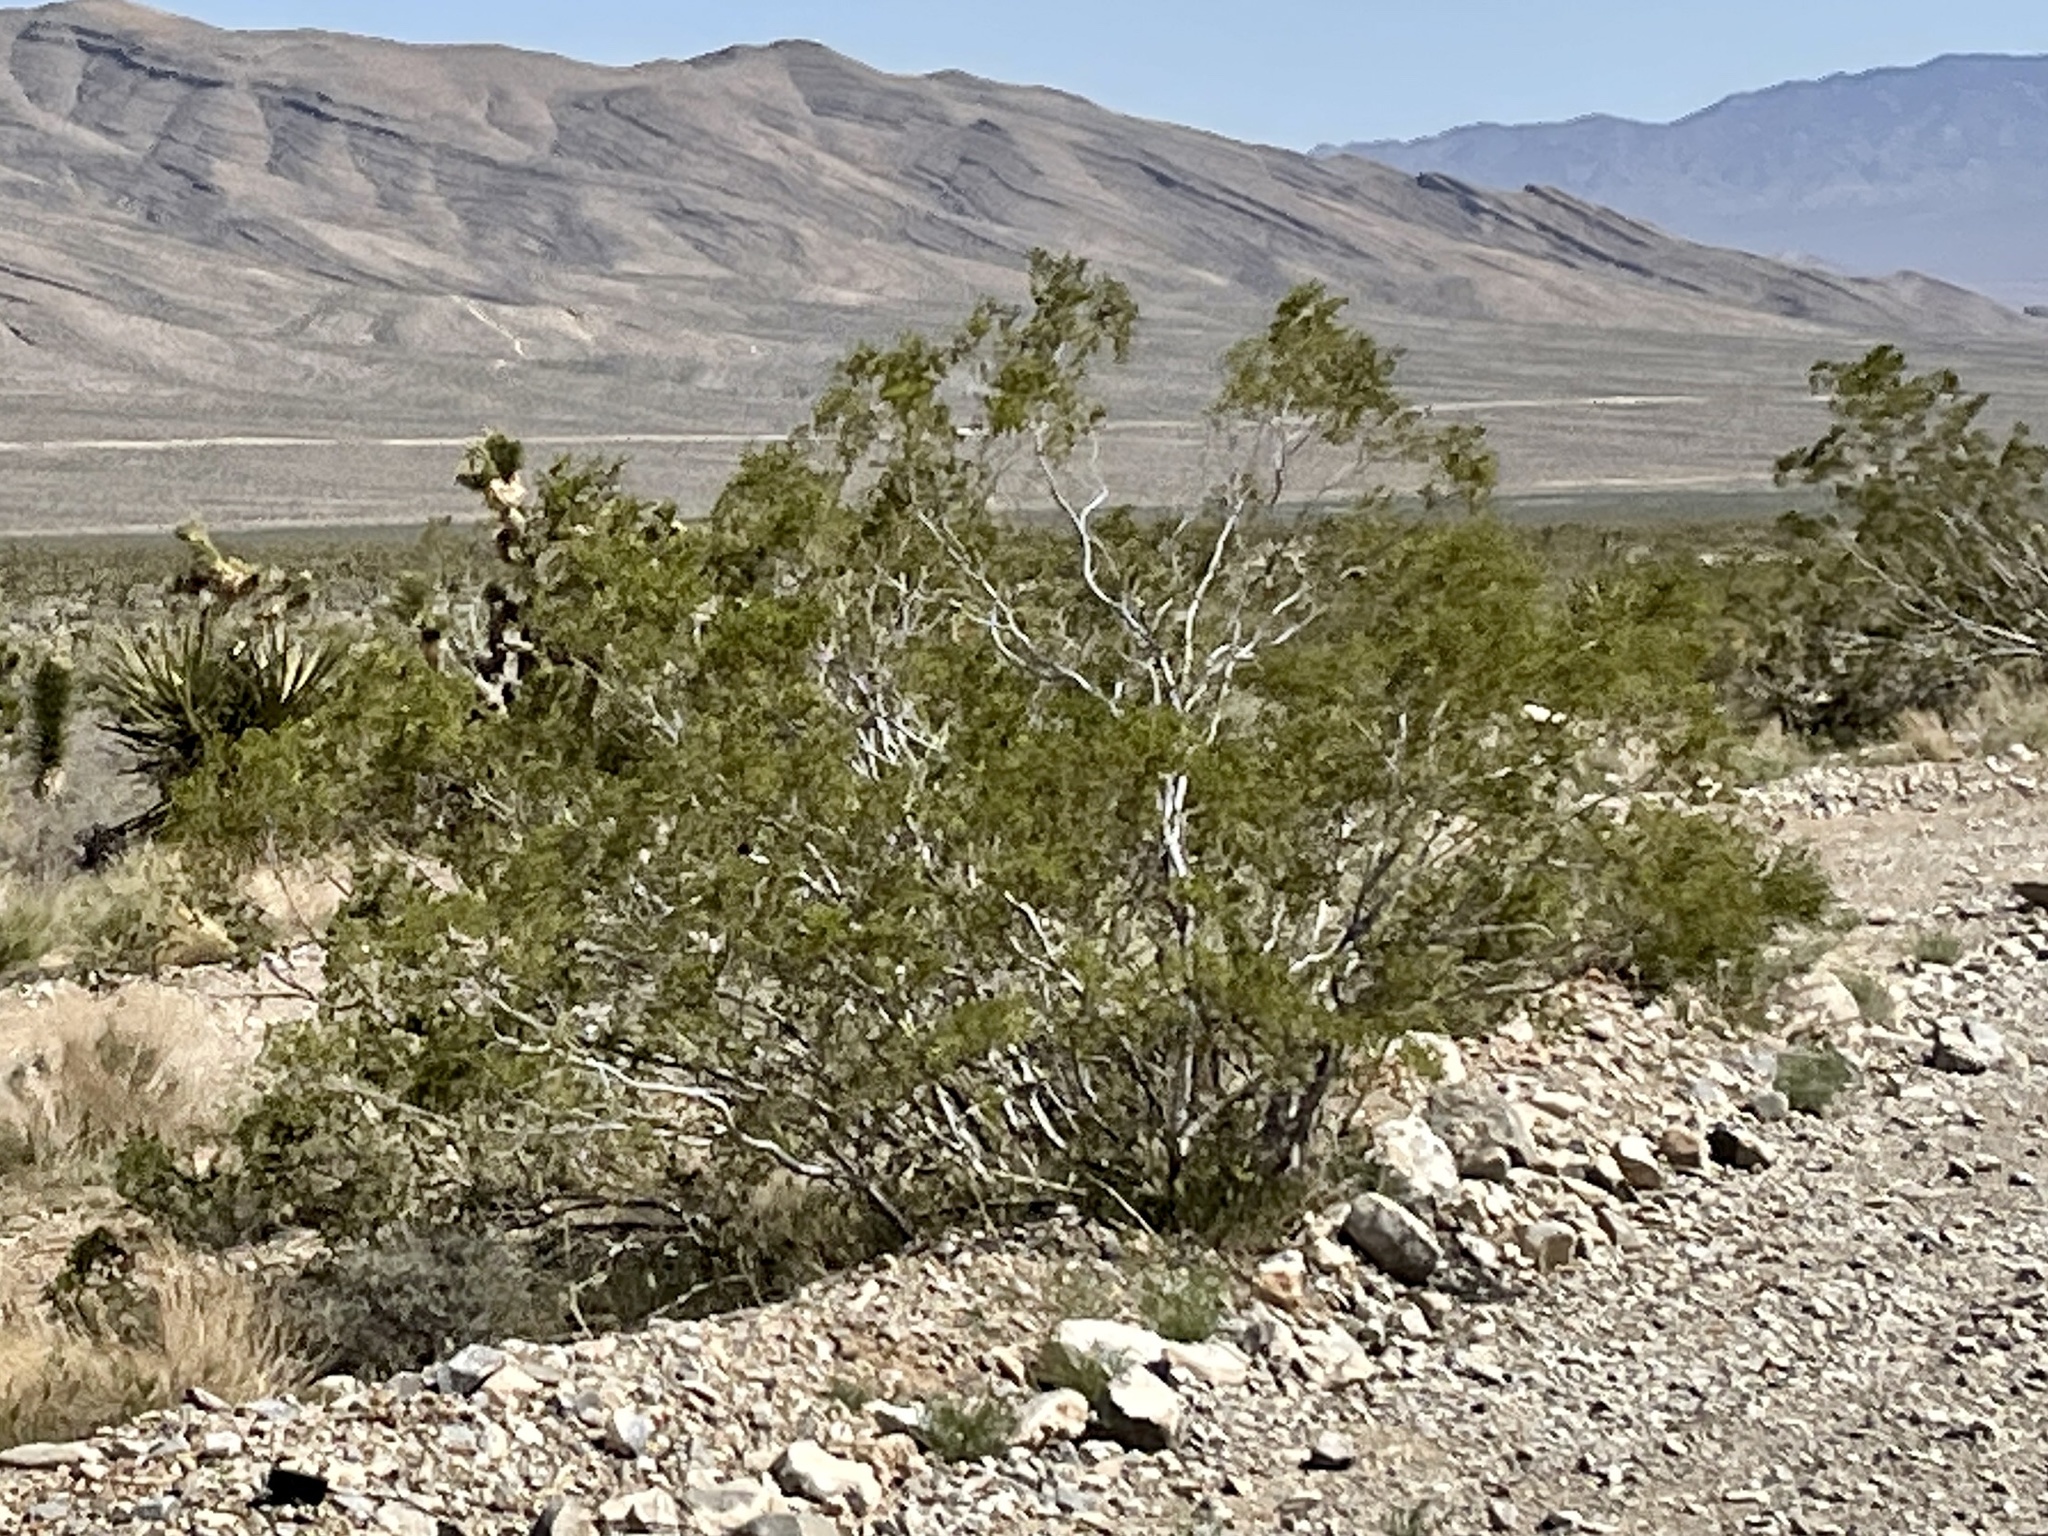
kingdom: Plantae
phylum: Tracheophyta
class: Magnoliopsida
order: Zygophyllales
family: Zygophyllaceae
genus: Larrea
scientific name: Larrea tridentata
